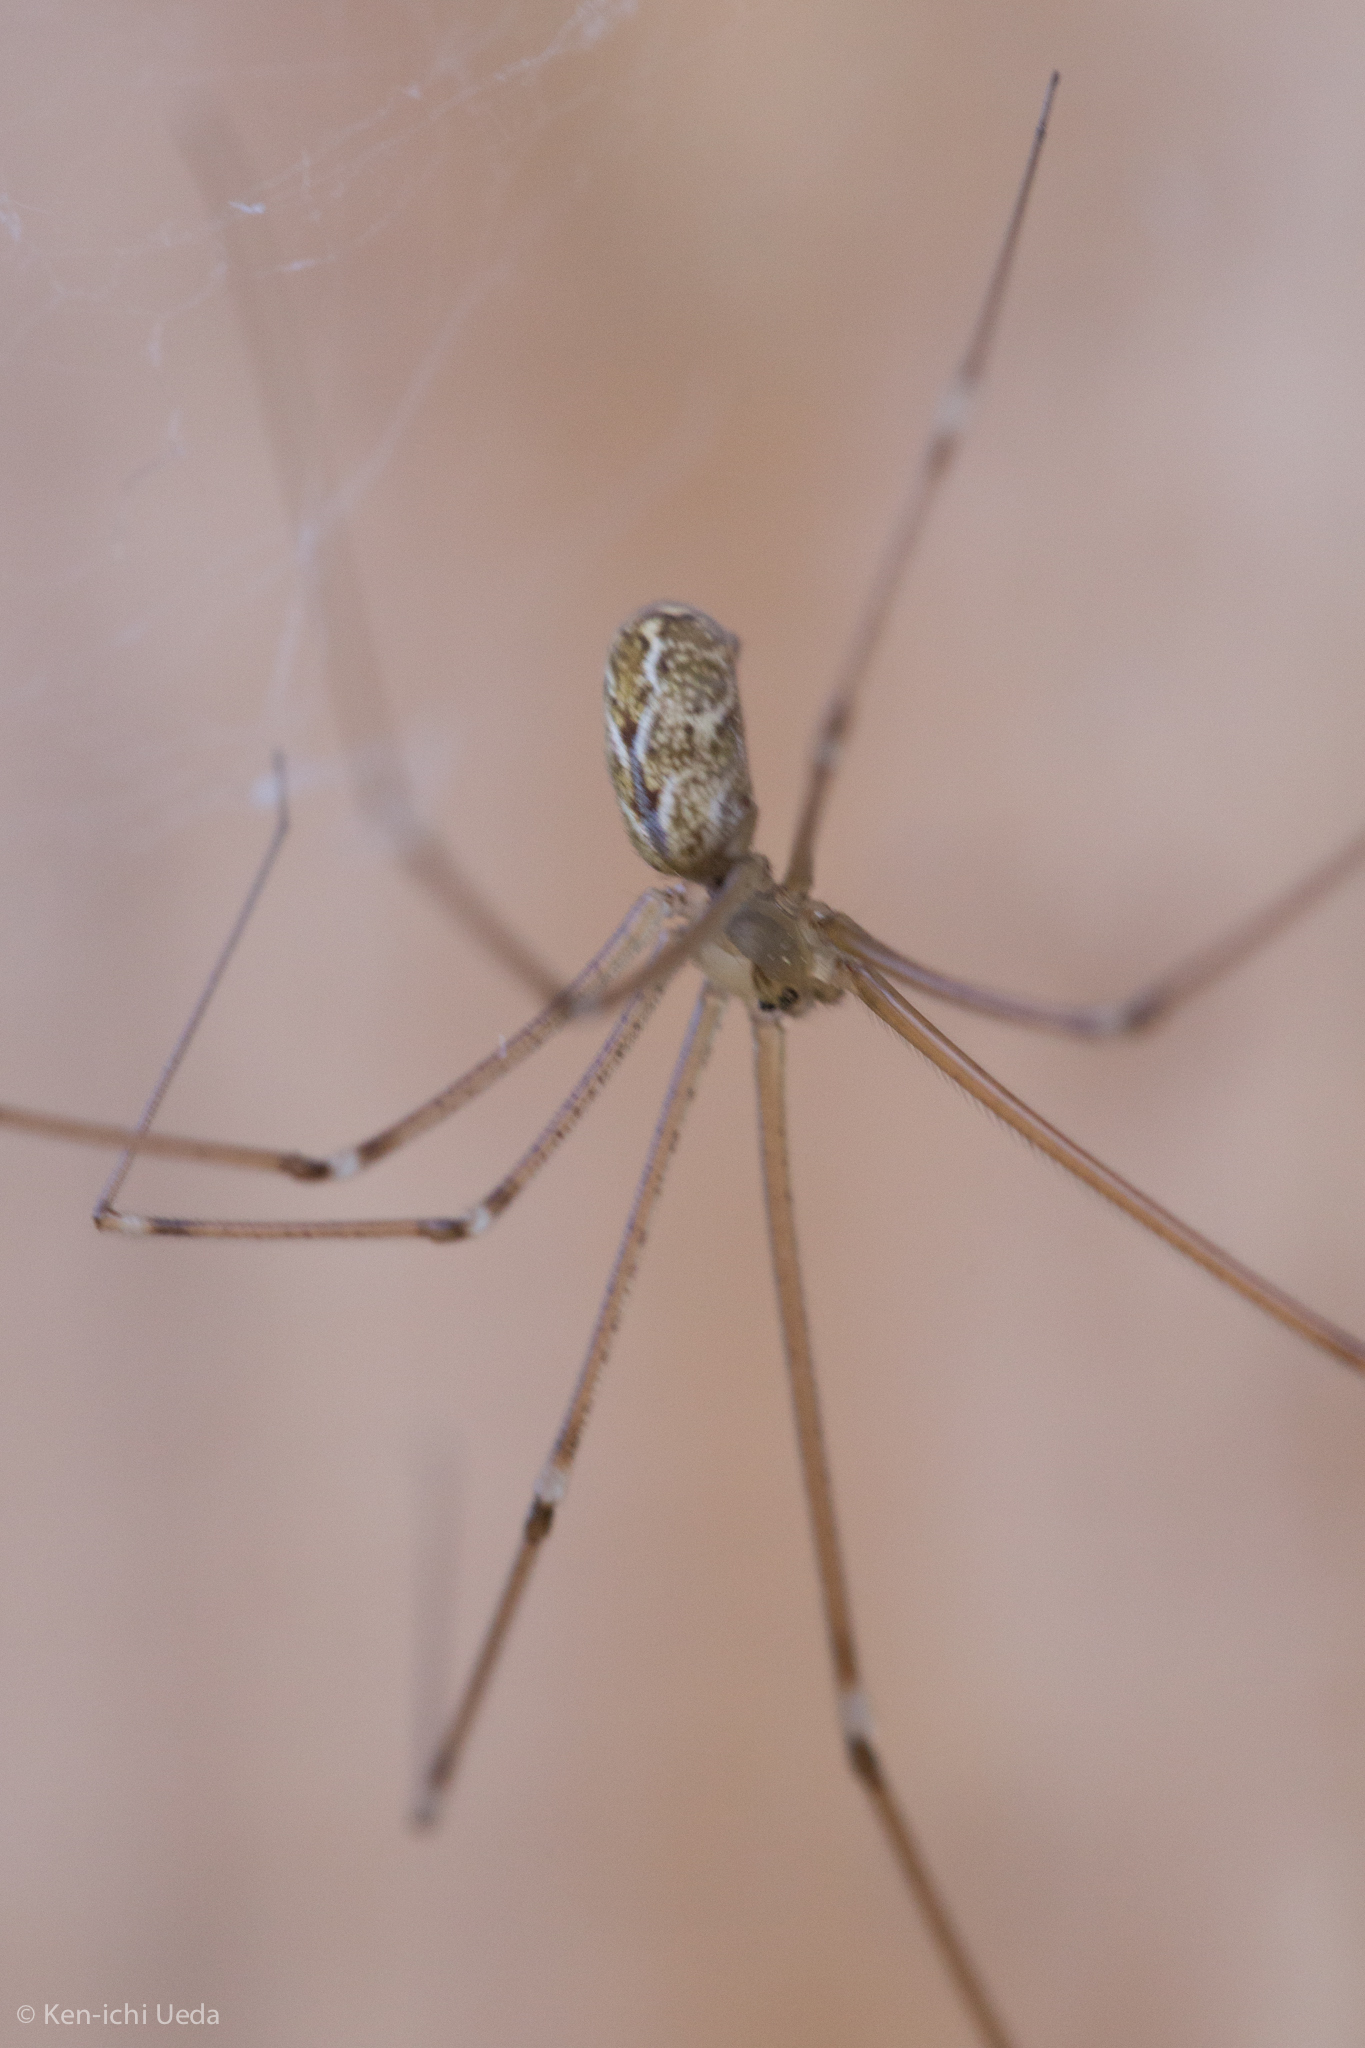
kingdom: Animalia
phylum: Arthropoda
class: Arachnida
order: Araneae
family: Pholcidae
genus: Holocnemus
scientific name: Holocnemus pluchei
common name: Marbled cellar spider
